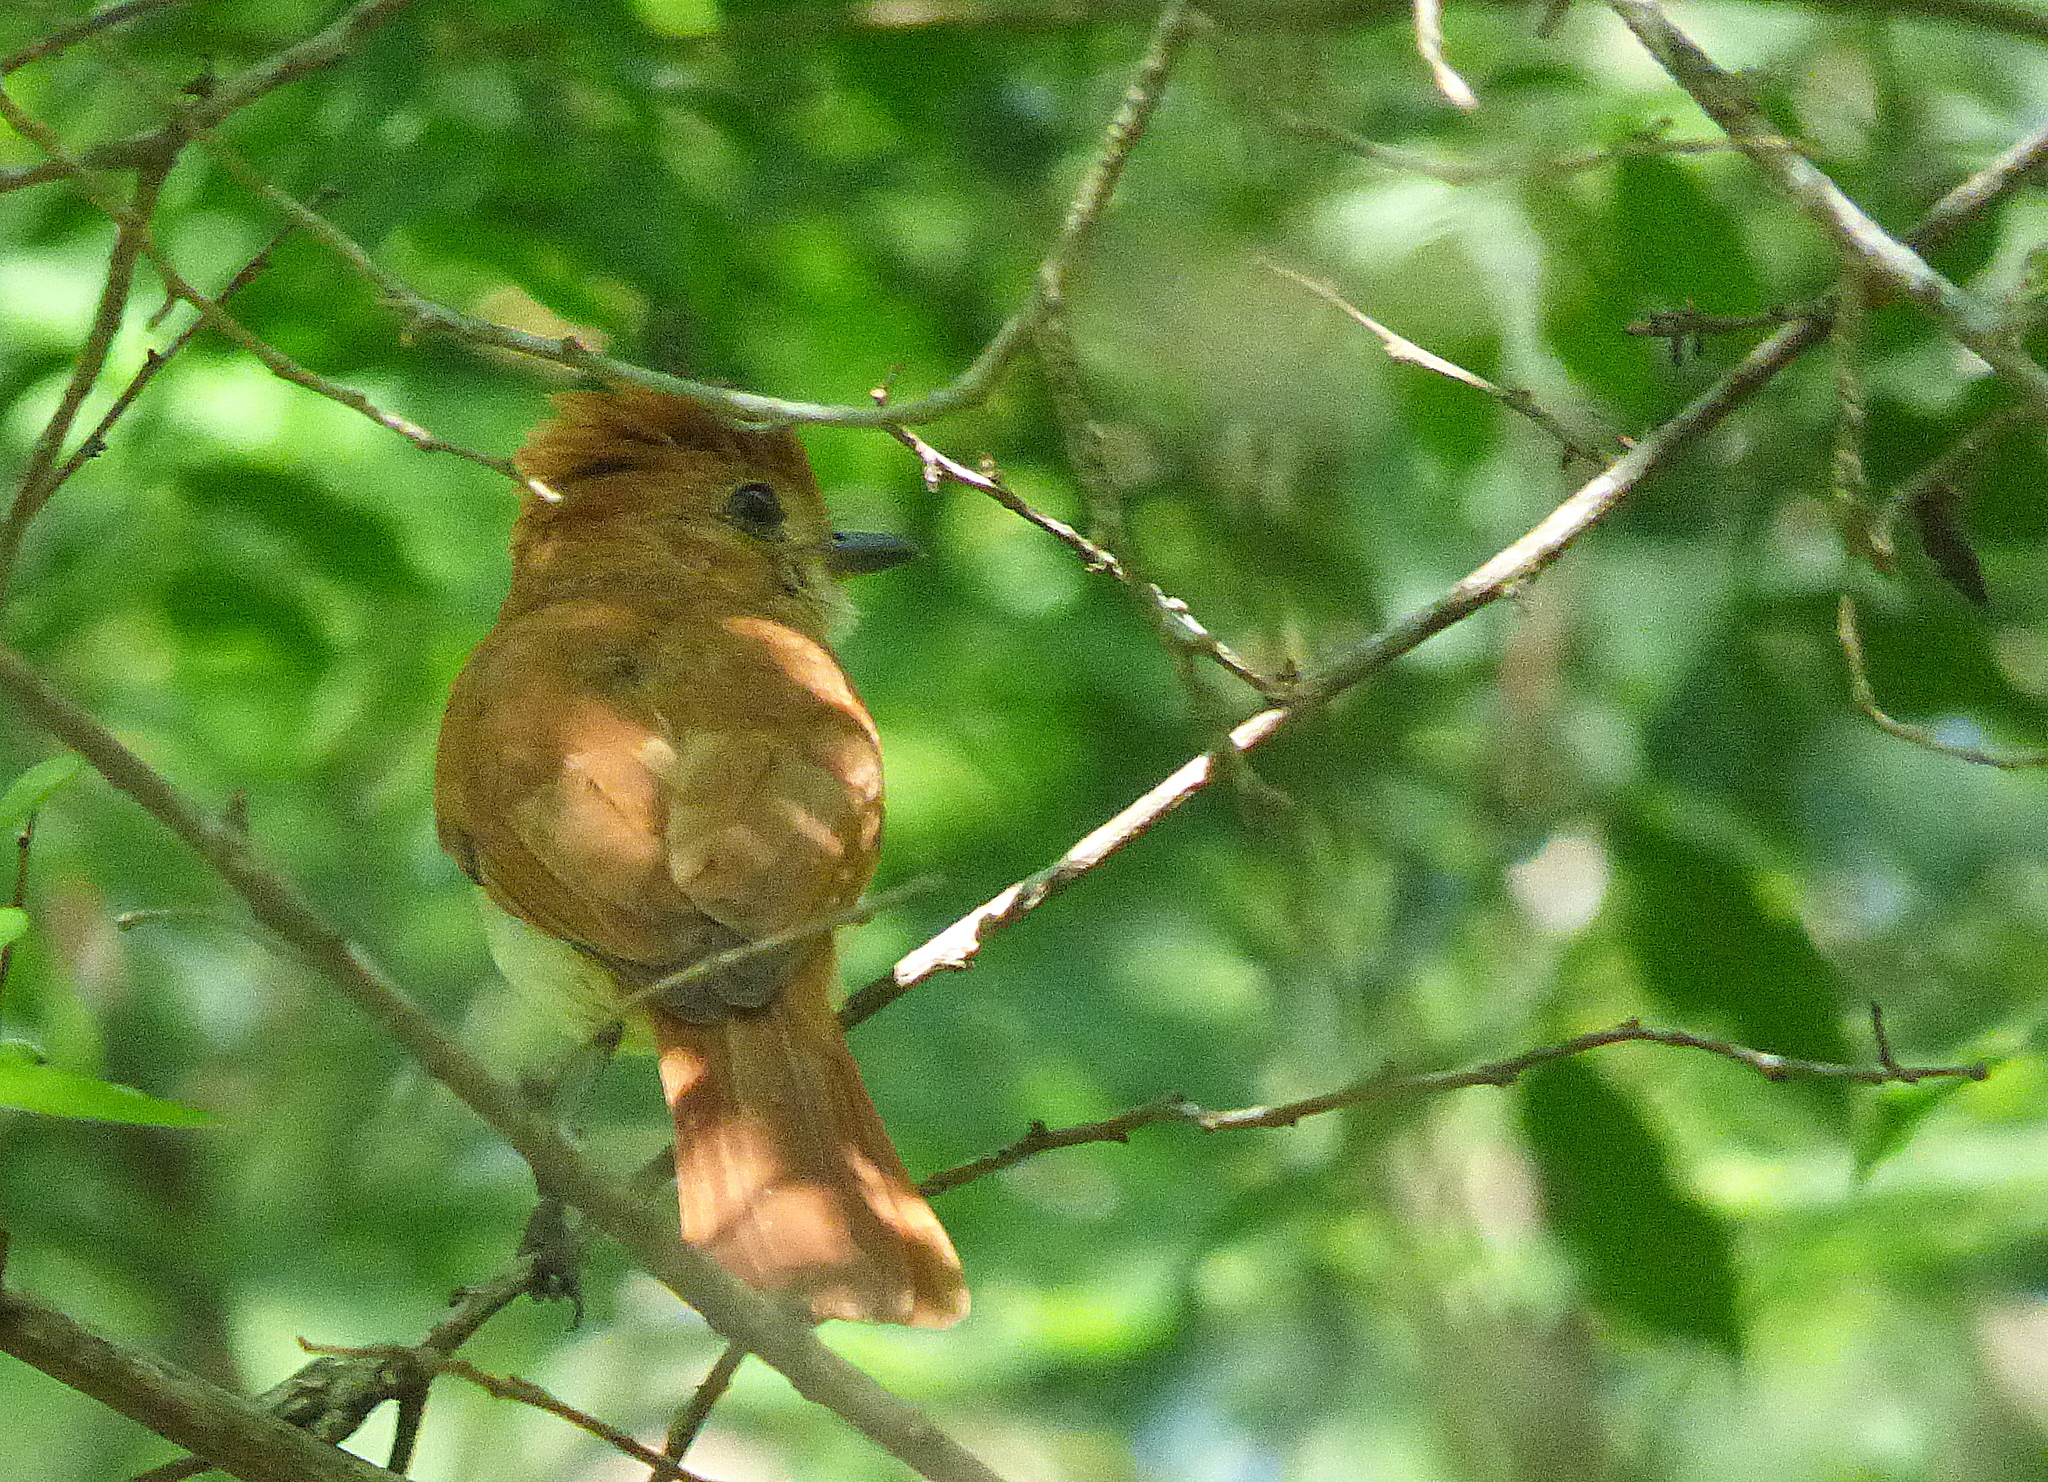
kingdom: Animalia
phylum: Chordata
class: Aves
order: Passeriformes
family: Tyrannidae
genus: Casiornis
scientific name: Casiornis rufus
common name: Rufous casiornis
